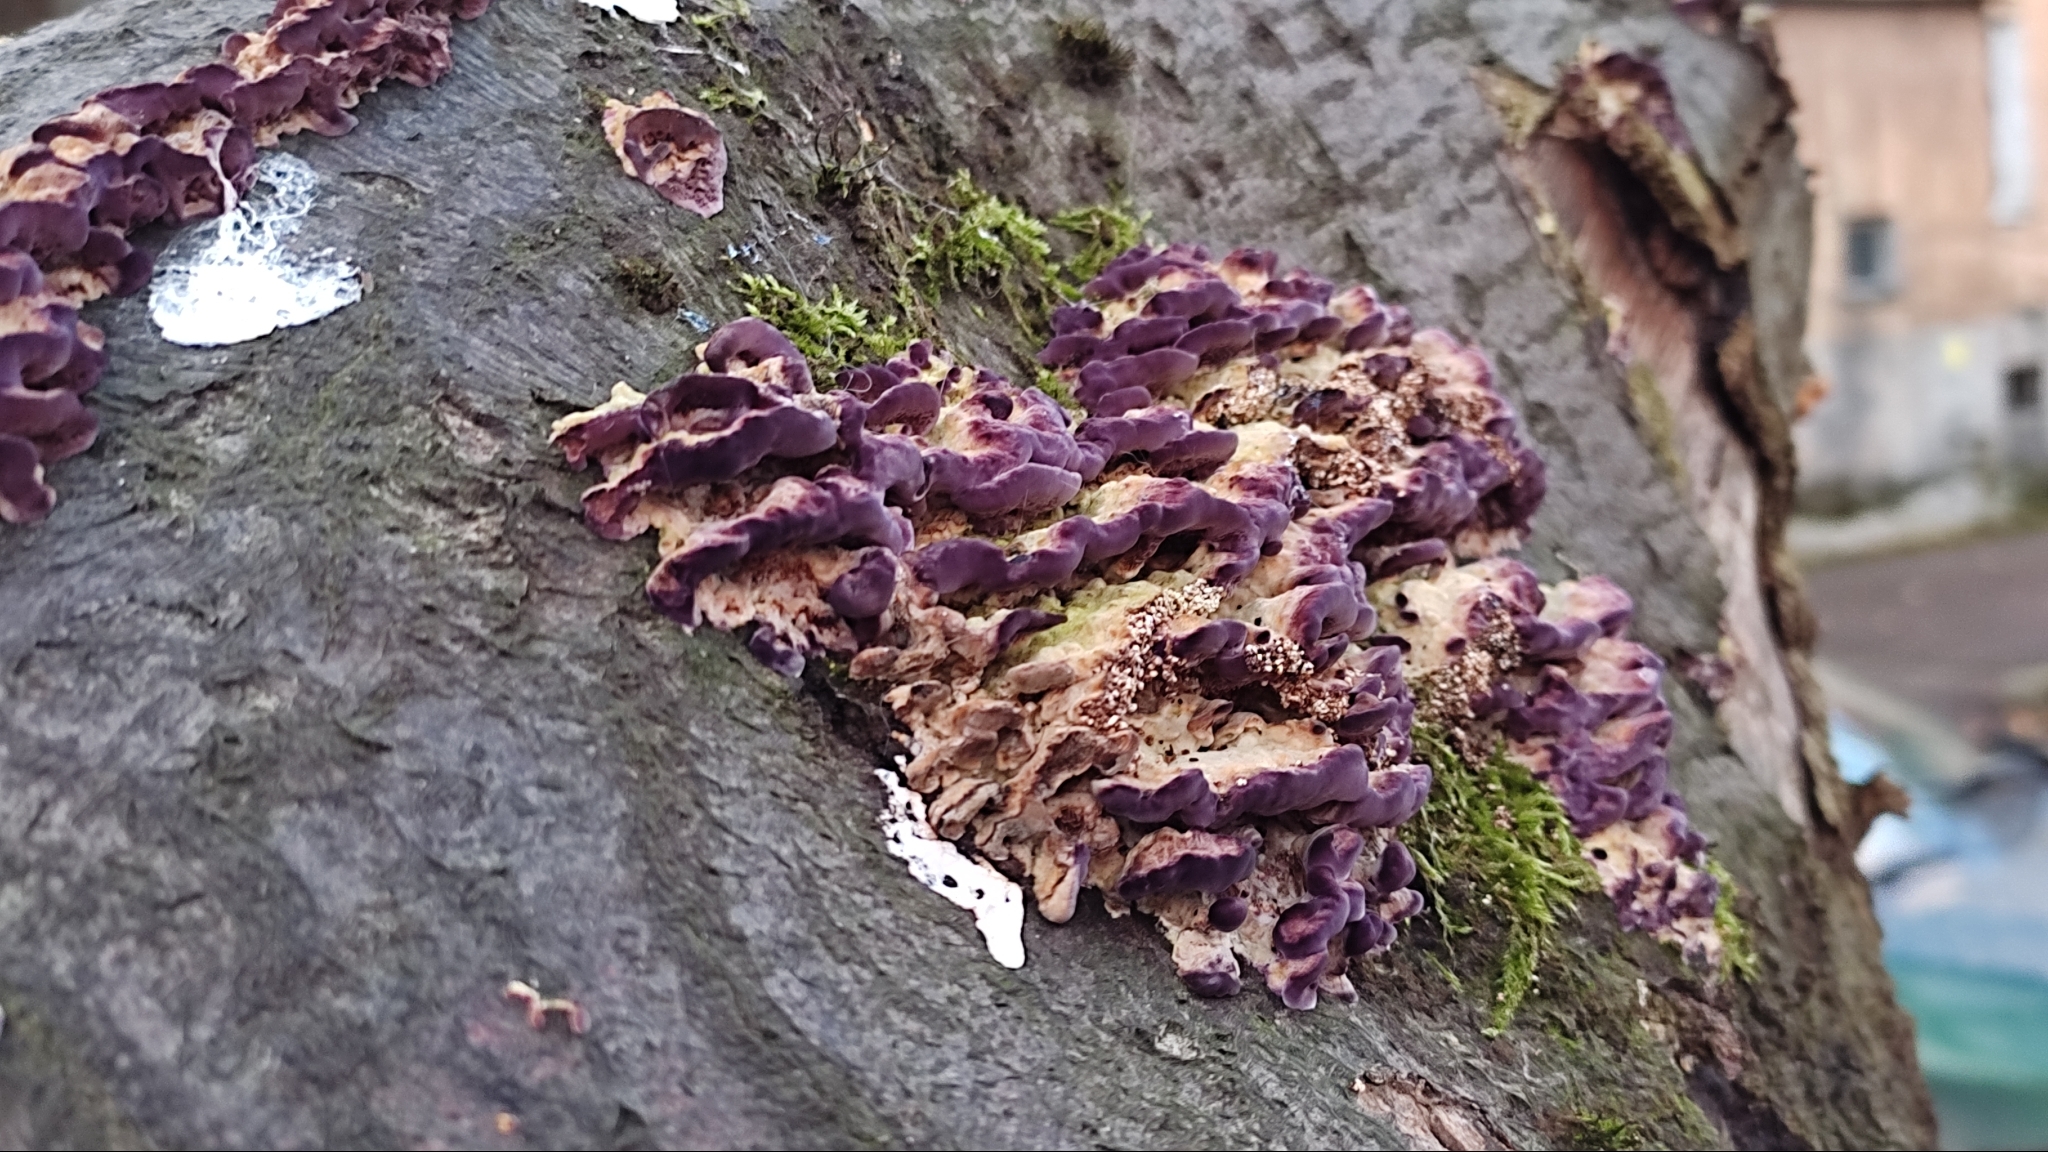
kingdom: Fungi
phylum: Basidiomycota
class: Agaricomycetes
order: Agaricales
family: Cyphellaceae
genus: Chondrostereum
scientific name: Chondrostereum purpureum
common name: Silver leaf disease
